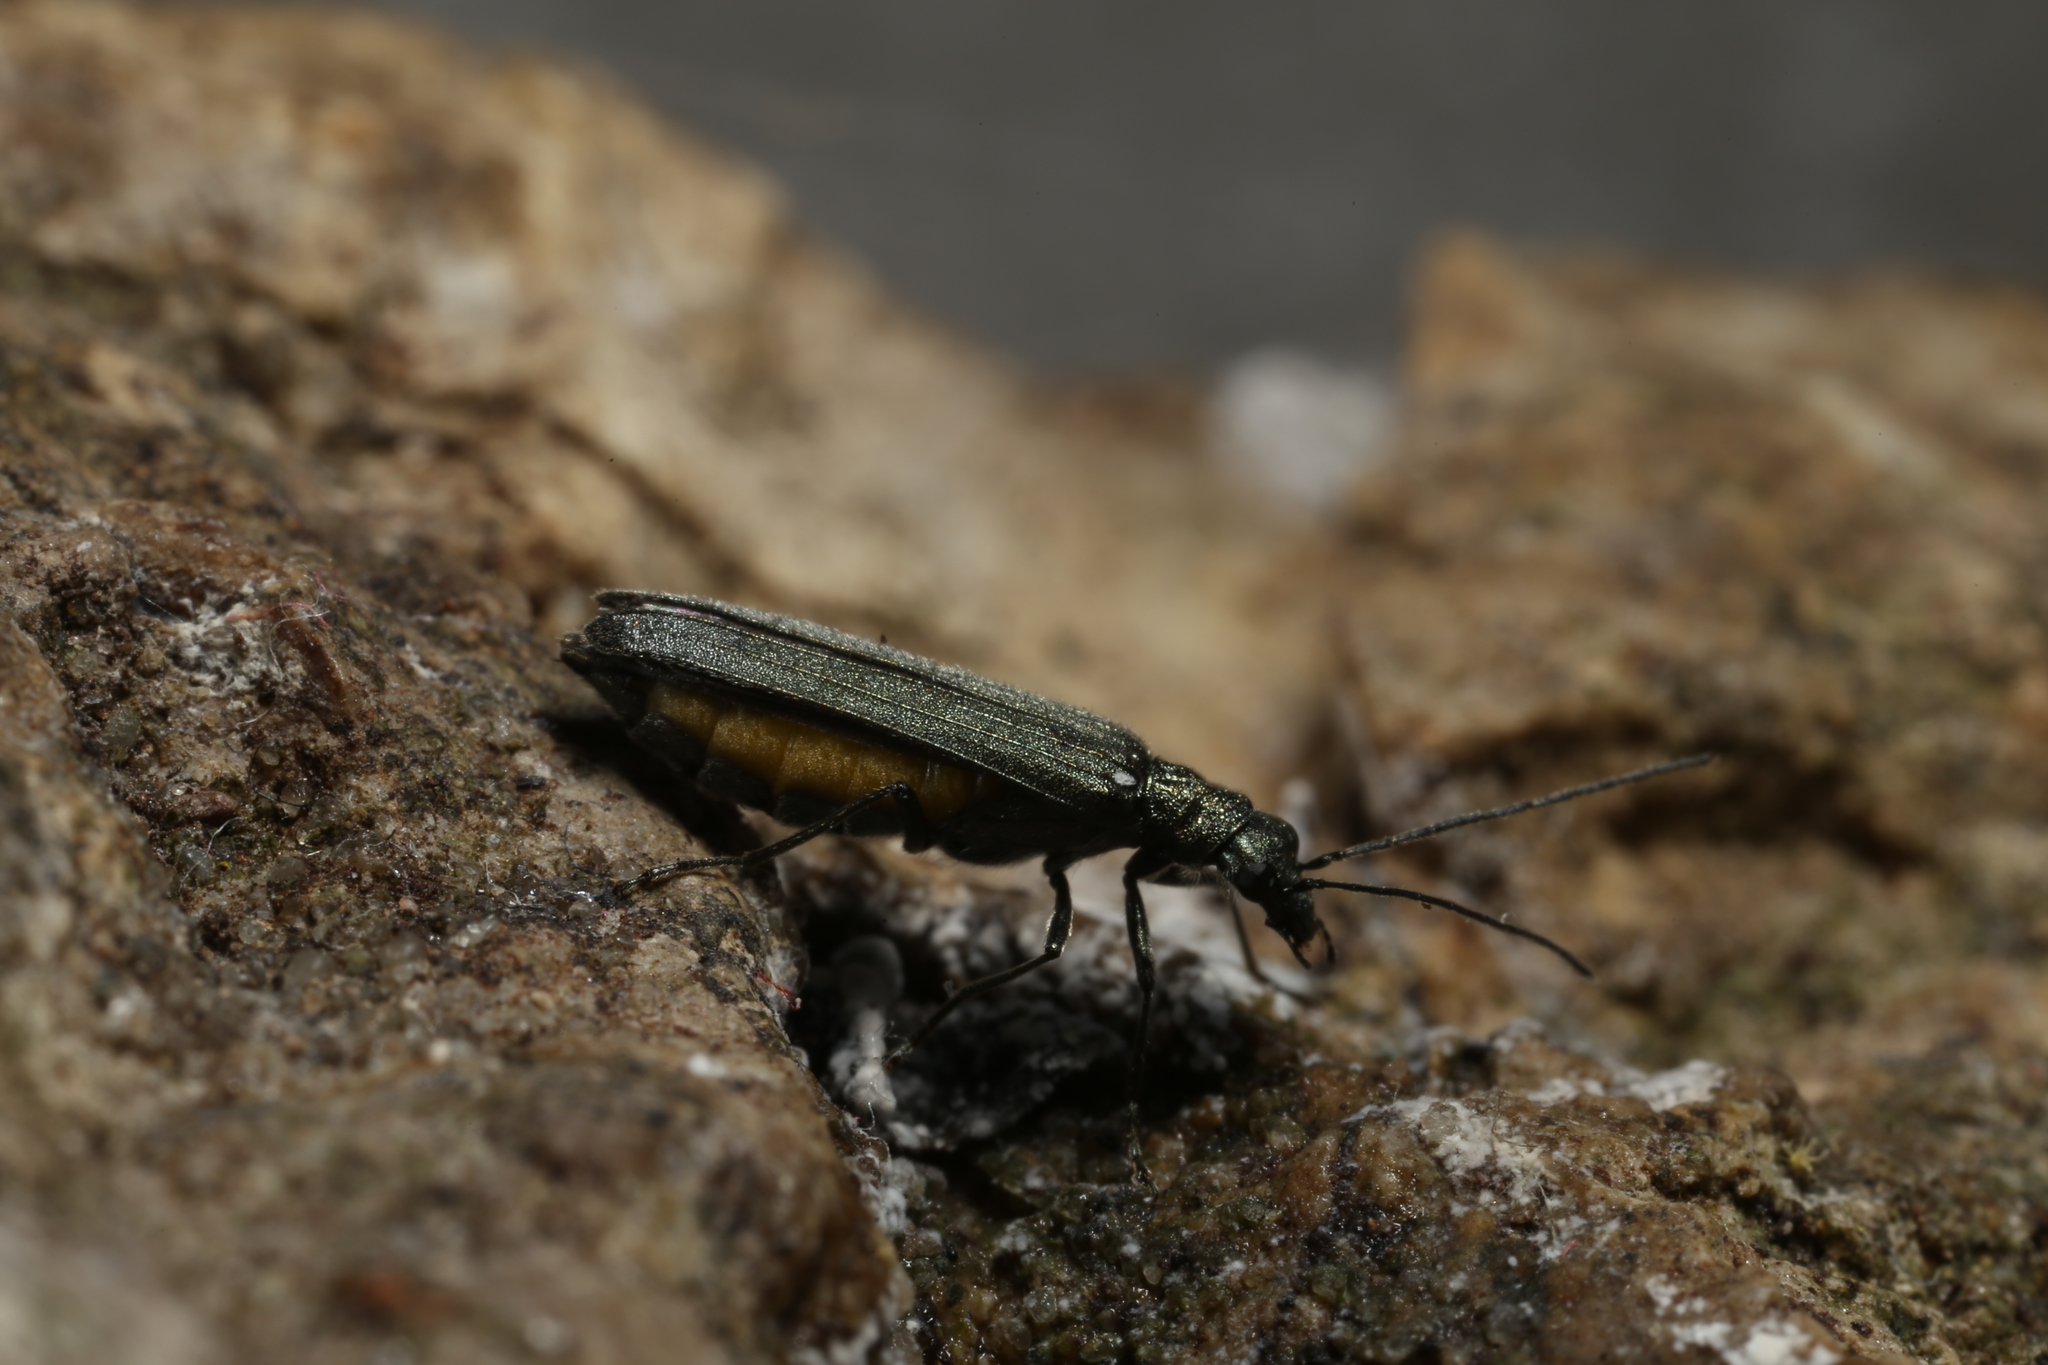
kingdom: Animalia
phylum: Arthropoda
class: Insecta
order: Coleoptera
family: Oedemeridae
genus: Oedemera
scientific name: Oedemera lurida
